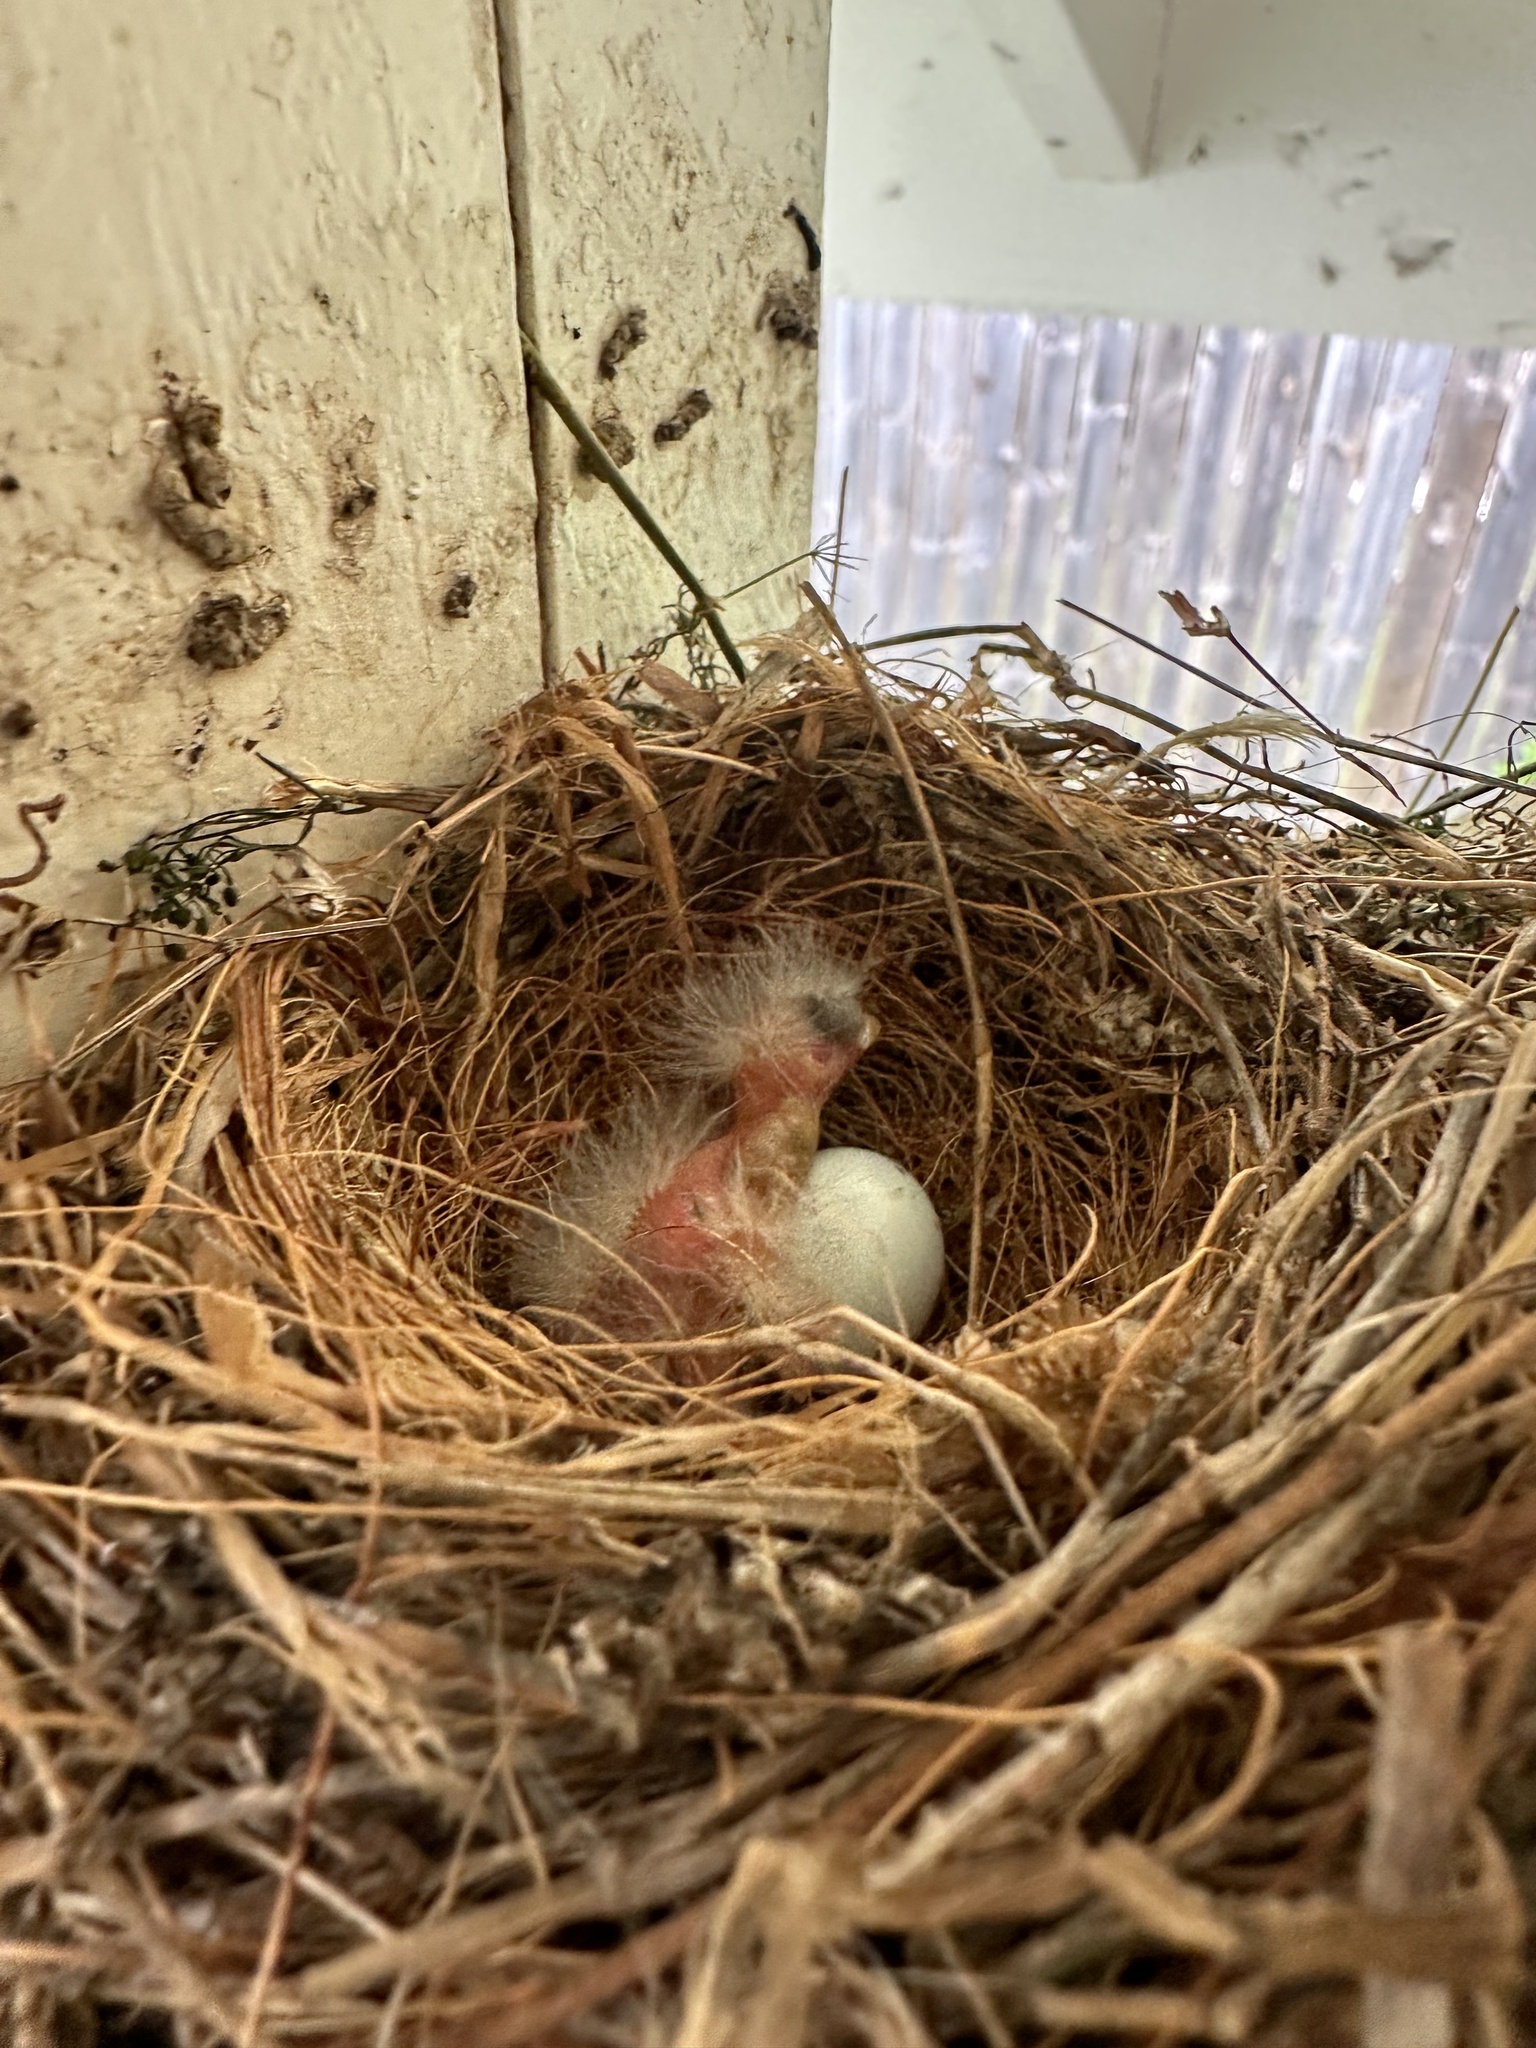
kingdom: Animalia
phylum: Chordata
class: Aves
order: Passeriformes
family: Fringillidae
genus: Haemorhous
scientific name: Haemorhous mexicanus
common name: House finch
